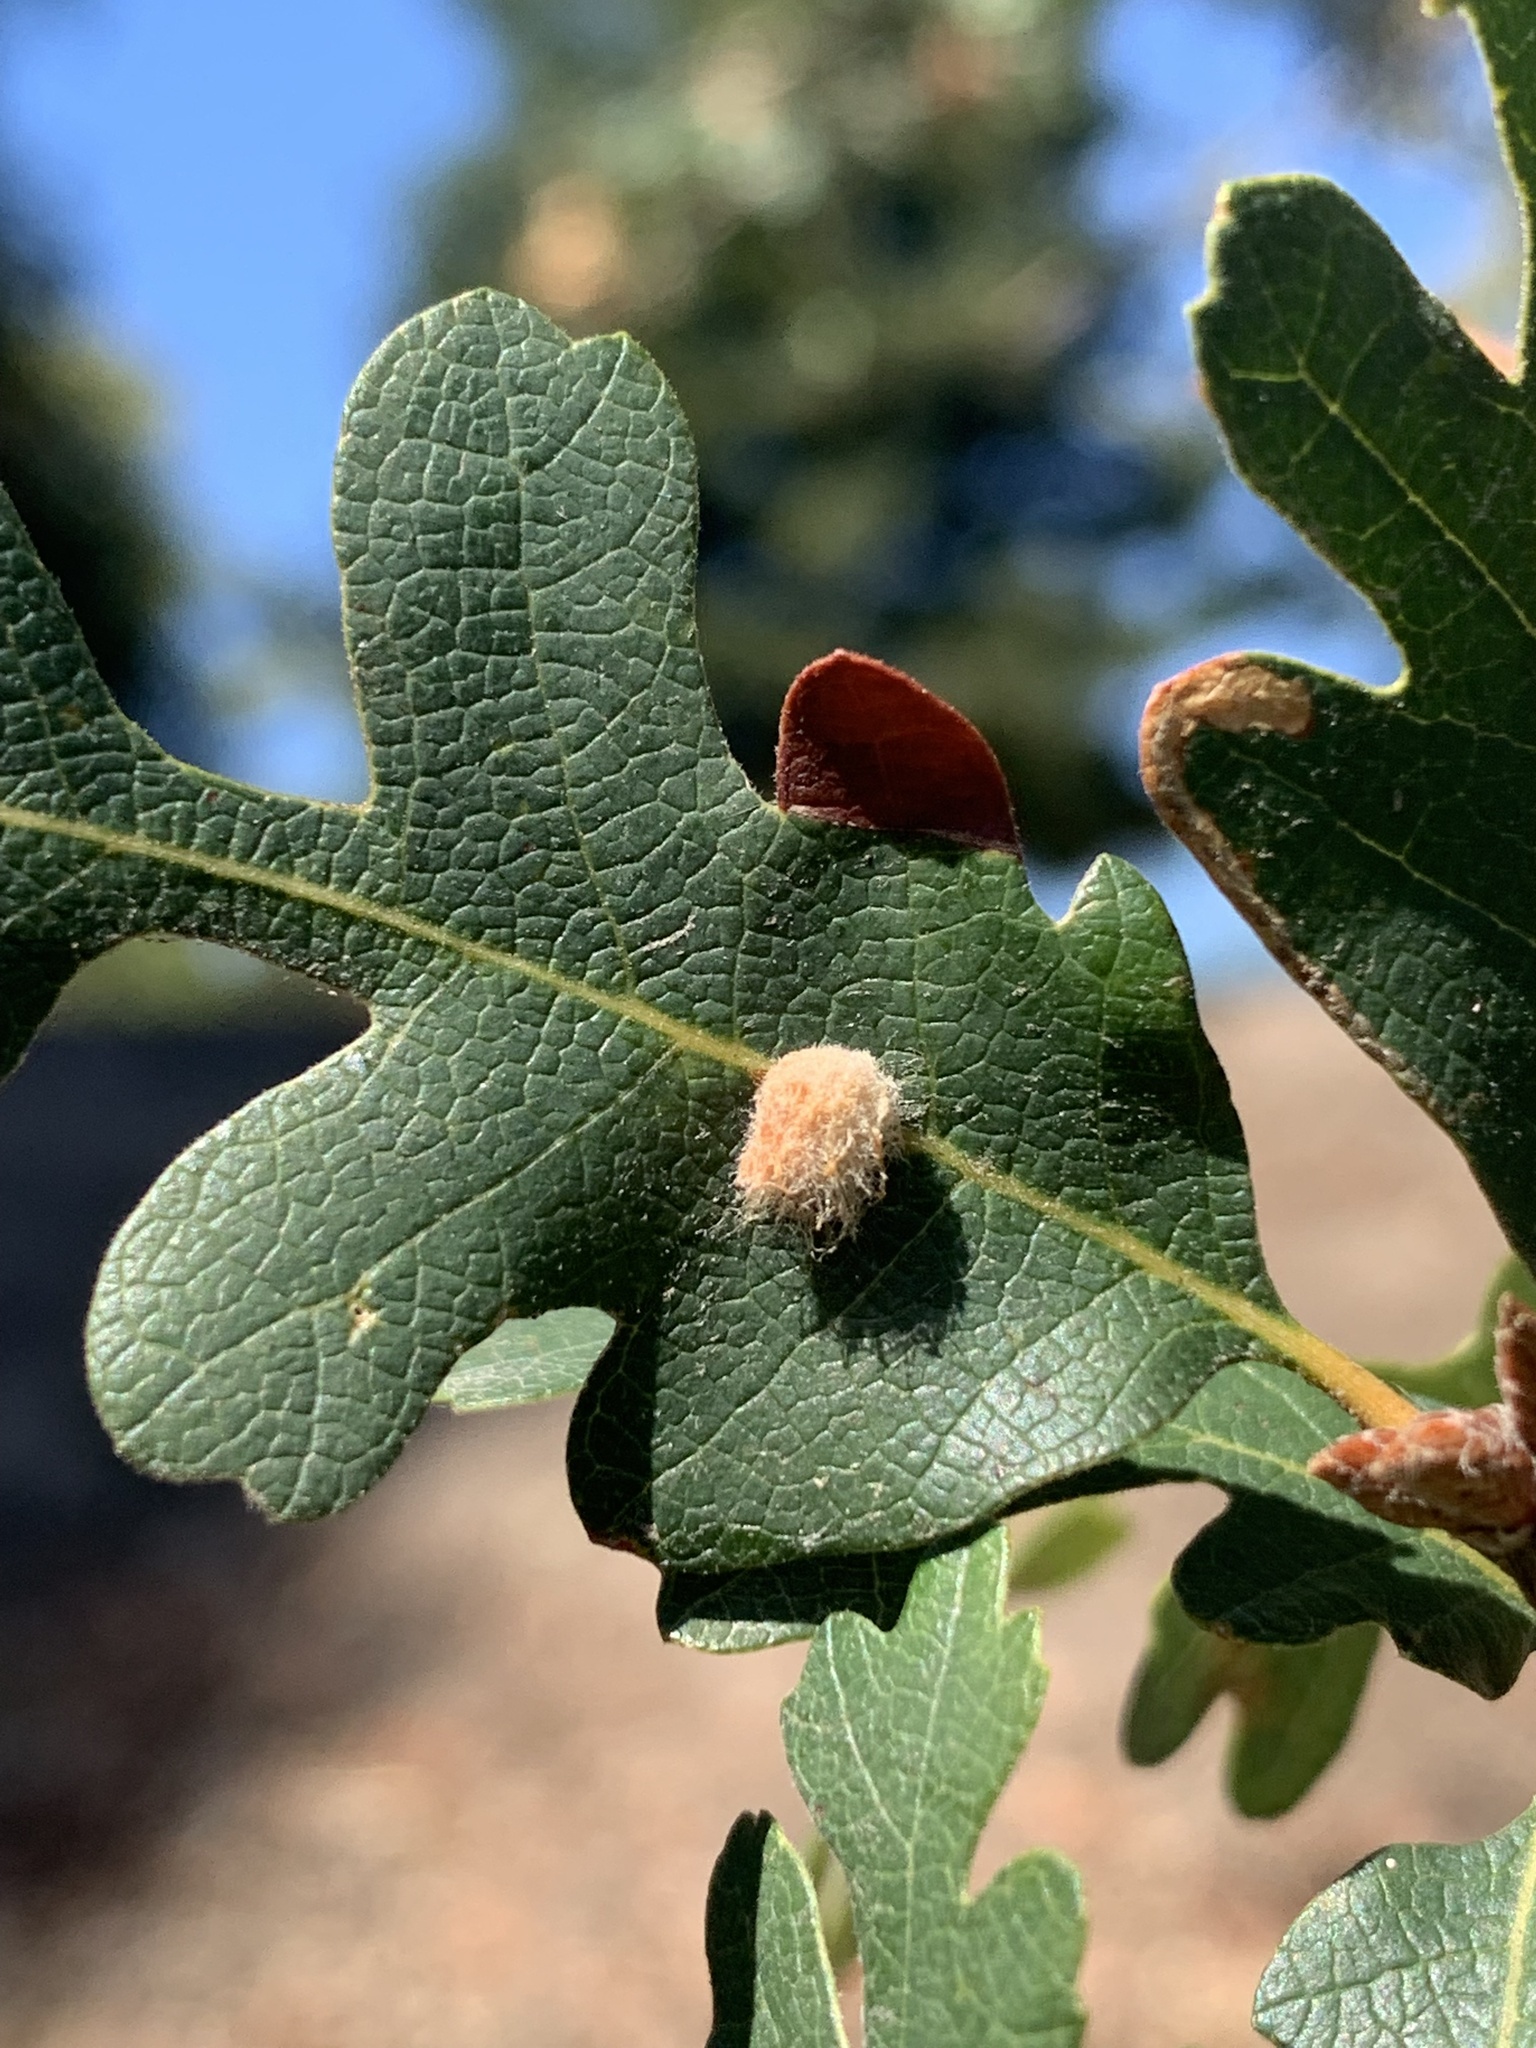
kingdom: Animalia
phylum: Arthropoda
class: Insecta
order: Hymenoptera
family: Cynipidae
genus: Andricus
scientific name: Andricus Druon fullawayi
